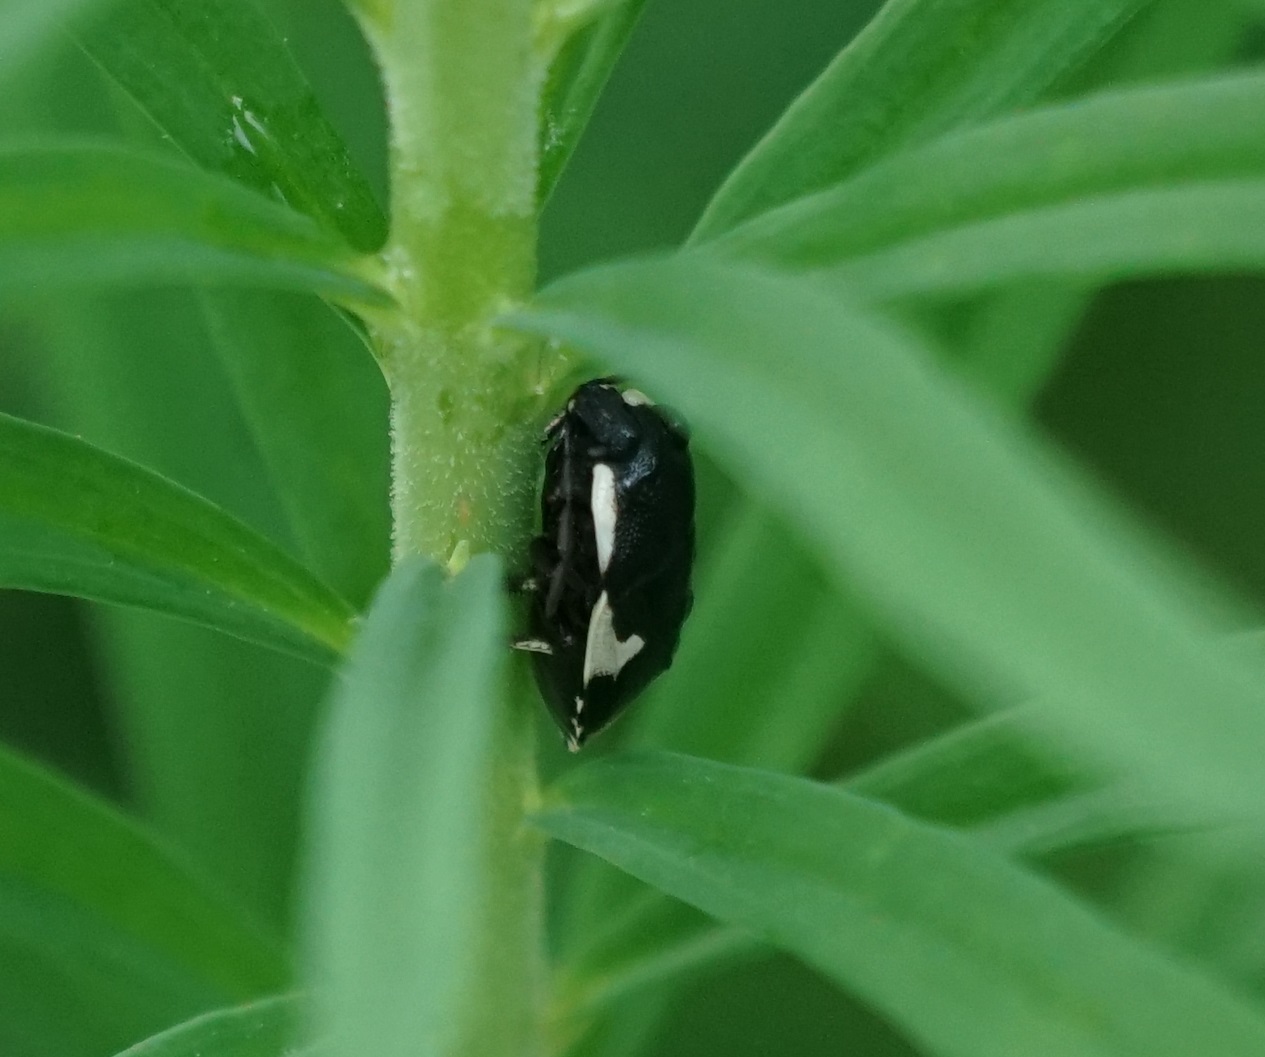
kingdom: Animalia
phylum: Arthropoda
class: Insecta
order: Hemiptera
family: Cydnidae
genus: Tritomegas
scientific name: Tritomegas sexmaculatus
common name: Rambur's pied shieldbug
